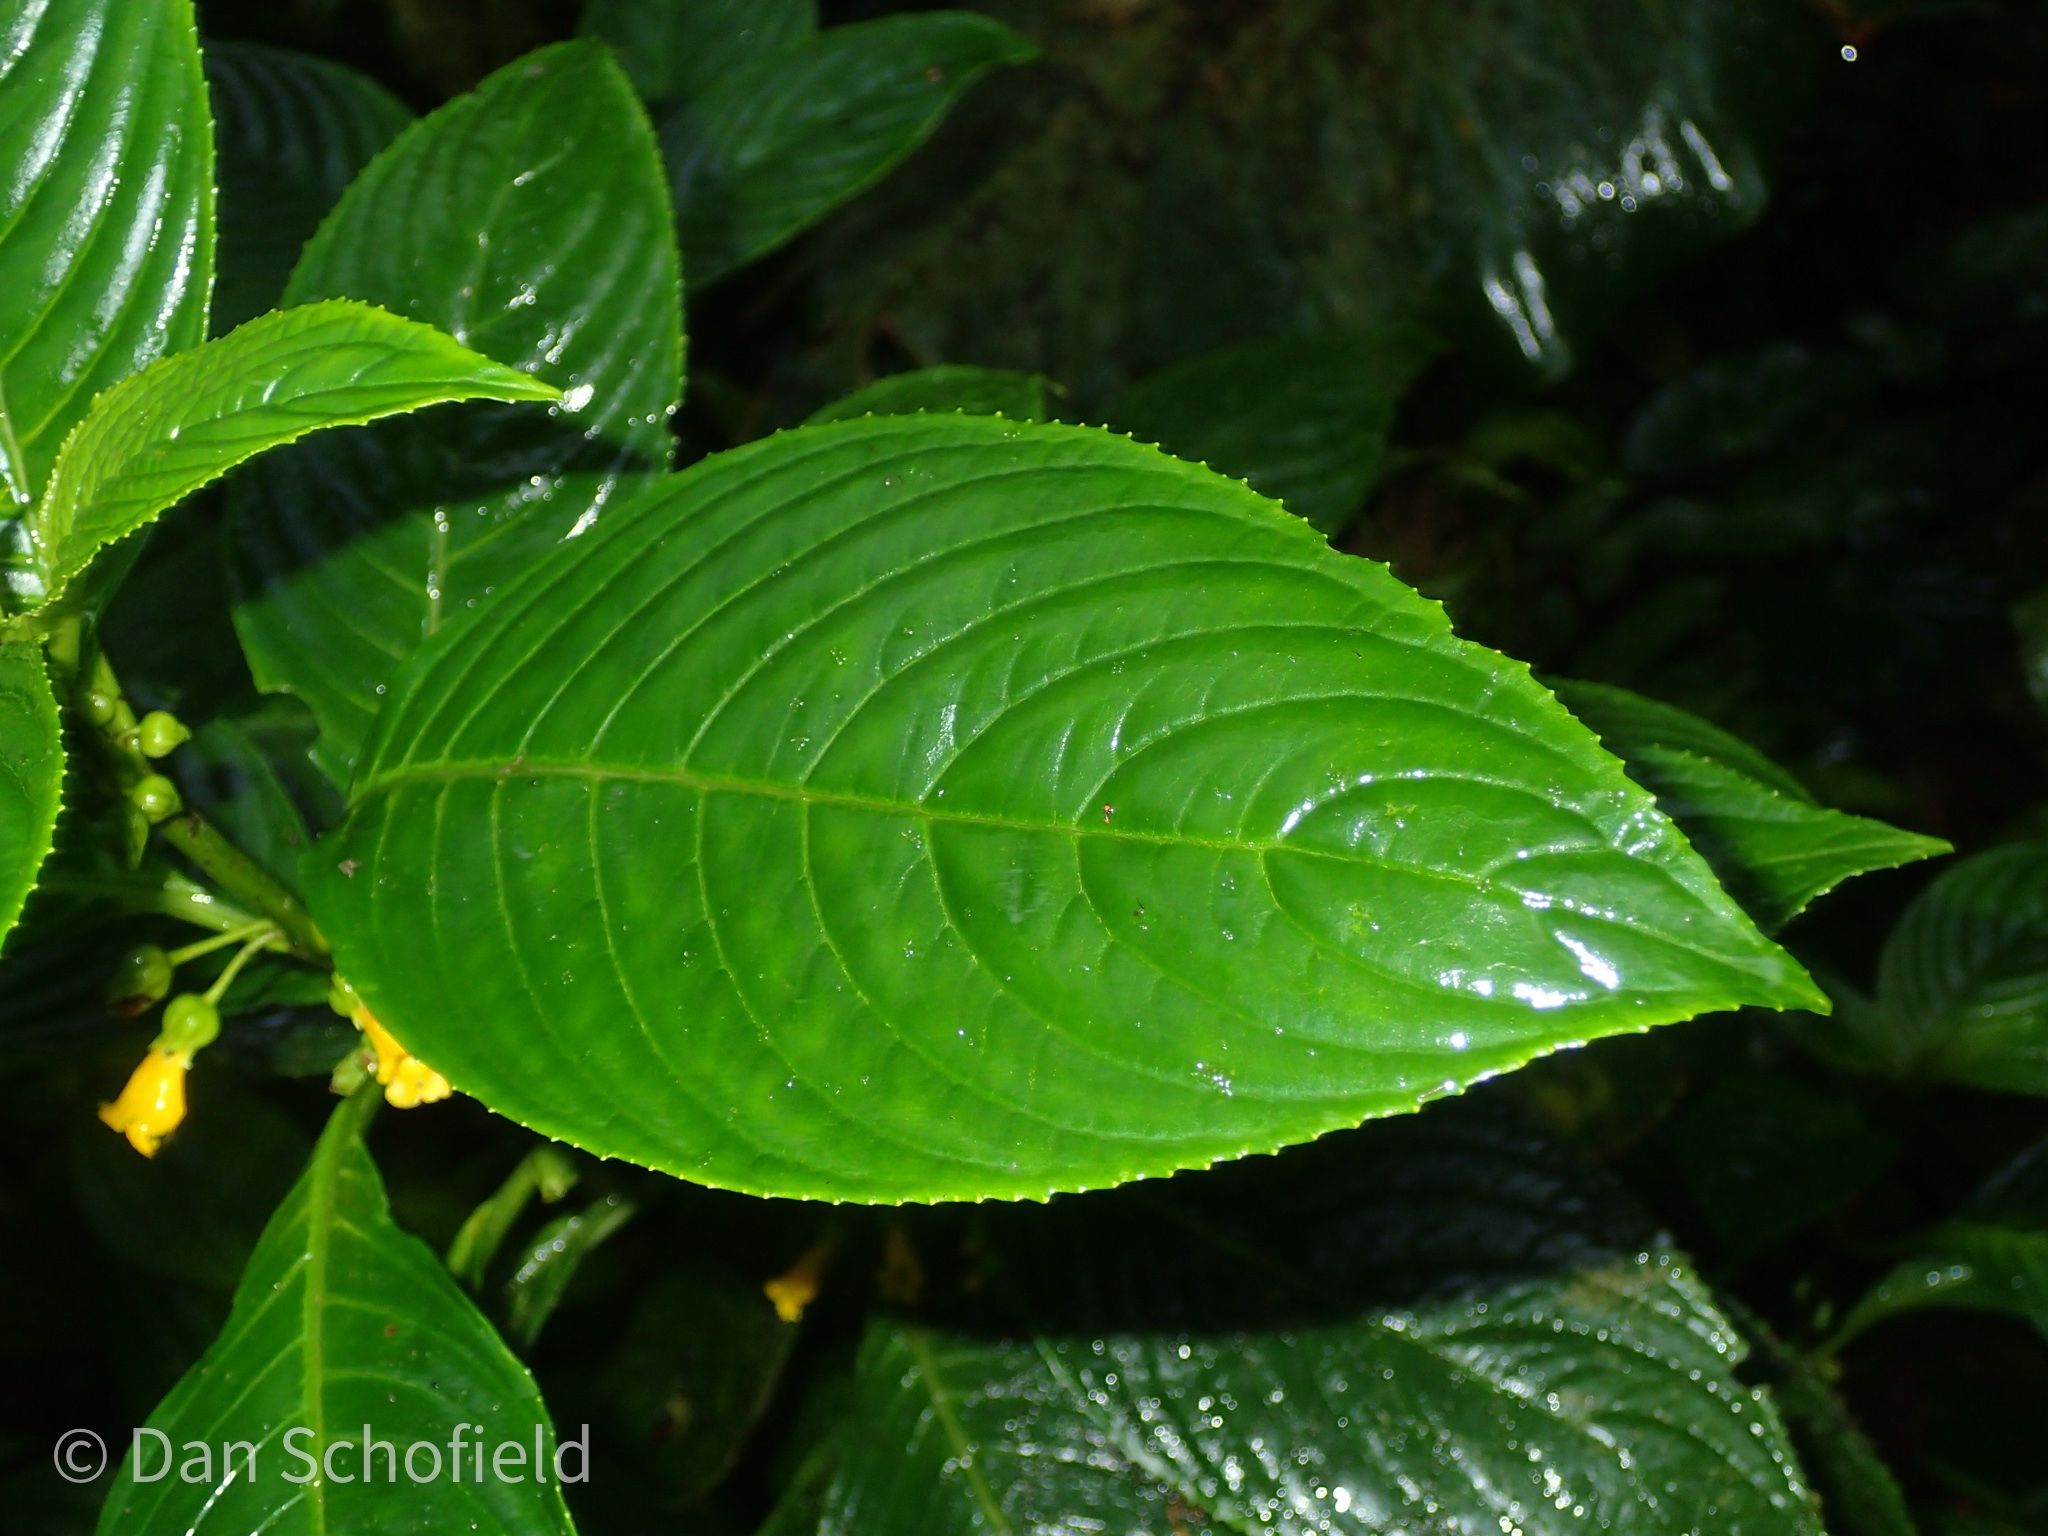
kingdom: Plantae
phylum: Tracheophyta
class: Magnoliopsida
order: Lamiales
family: Gesneriaceae
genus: Besleria
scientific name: Besleria lutea
